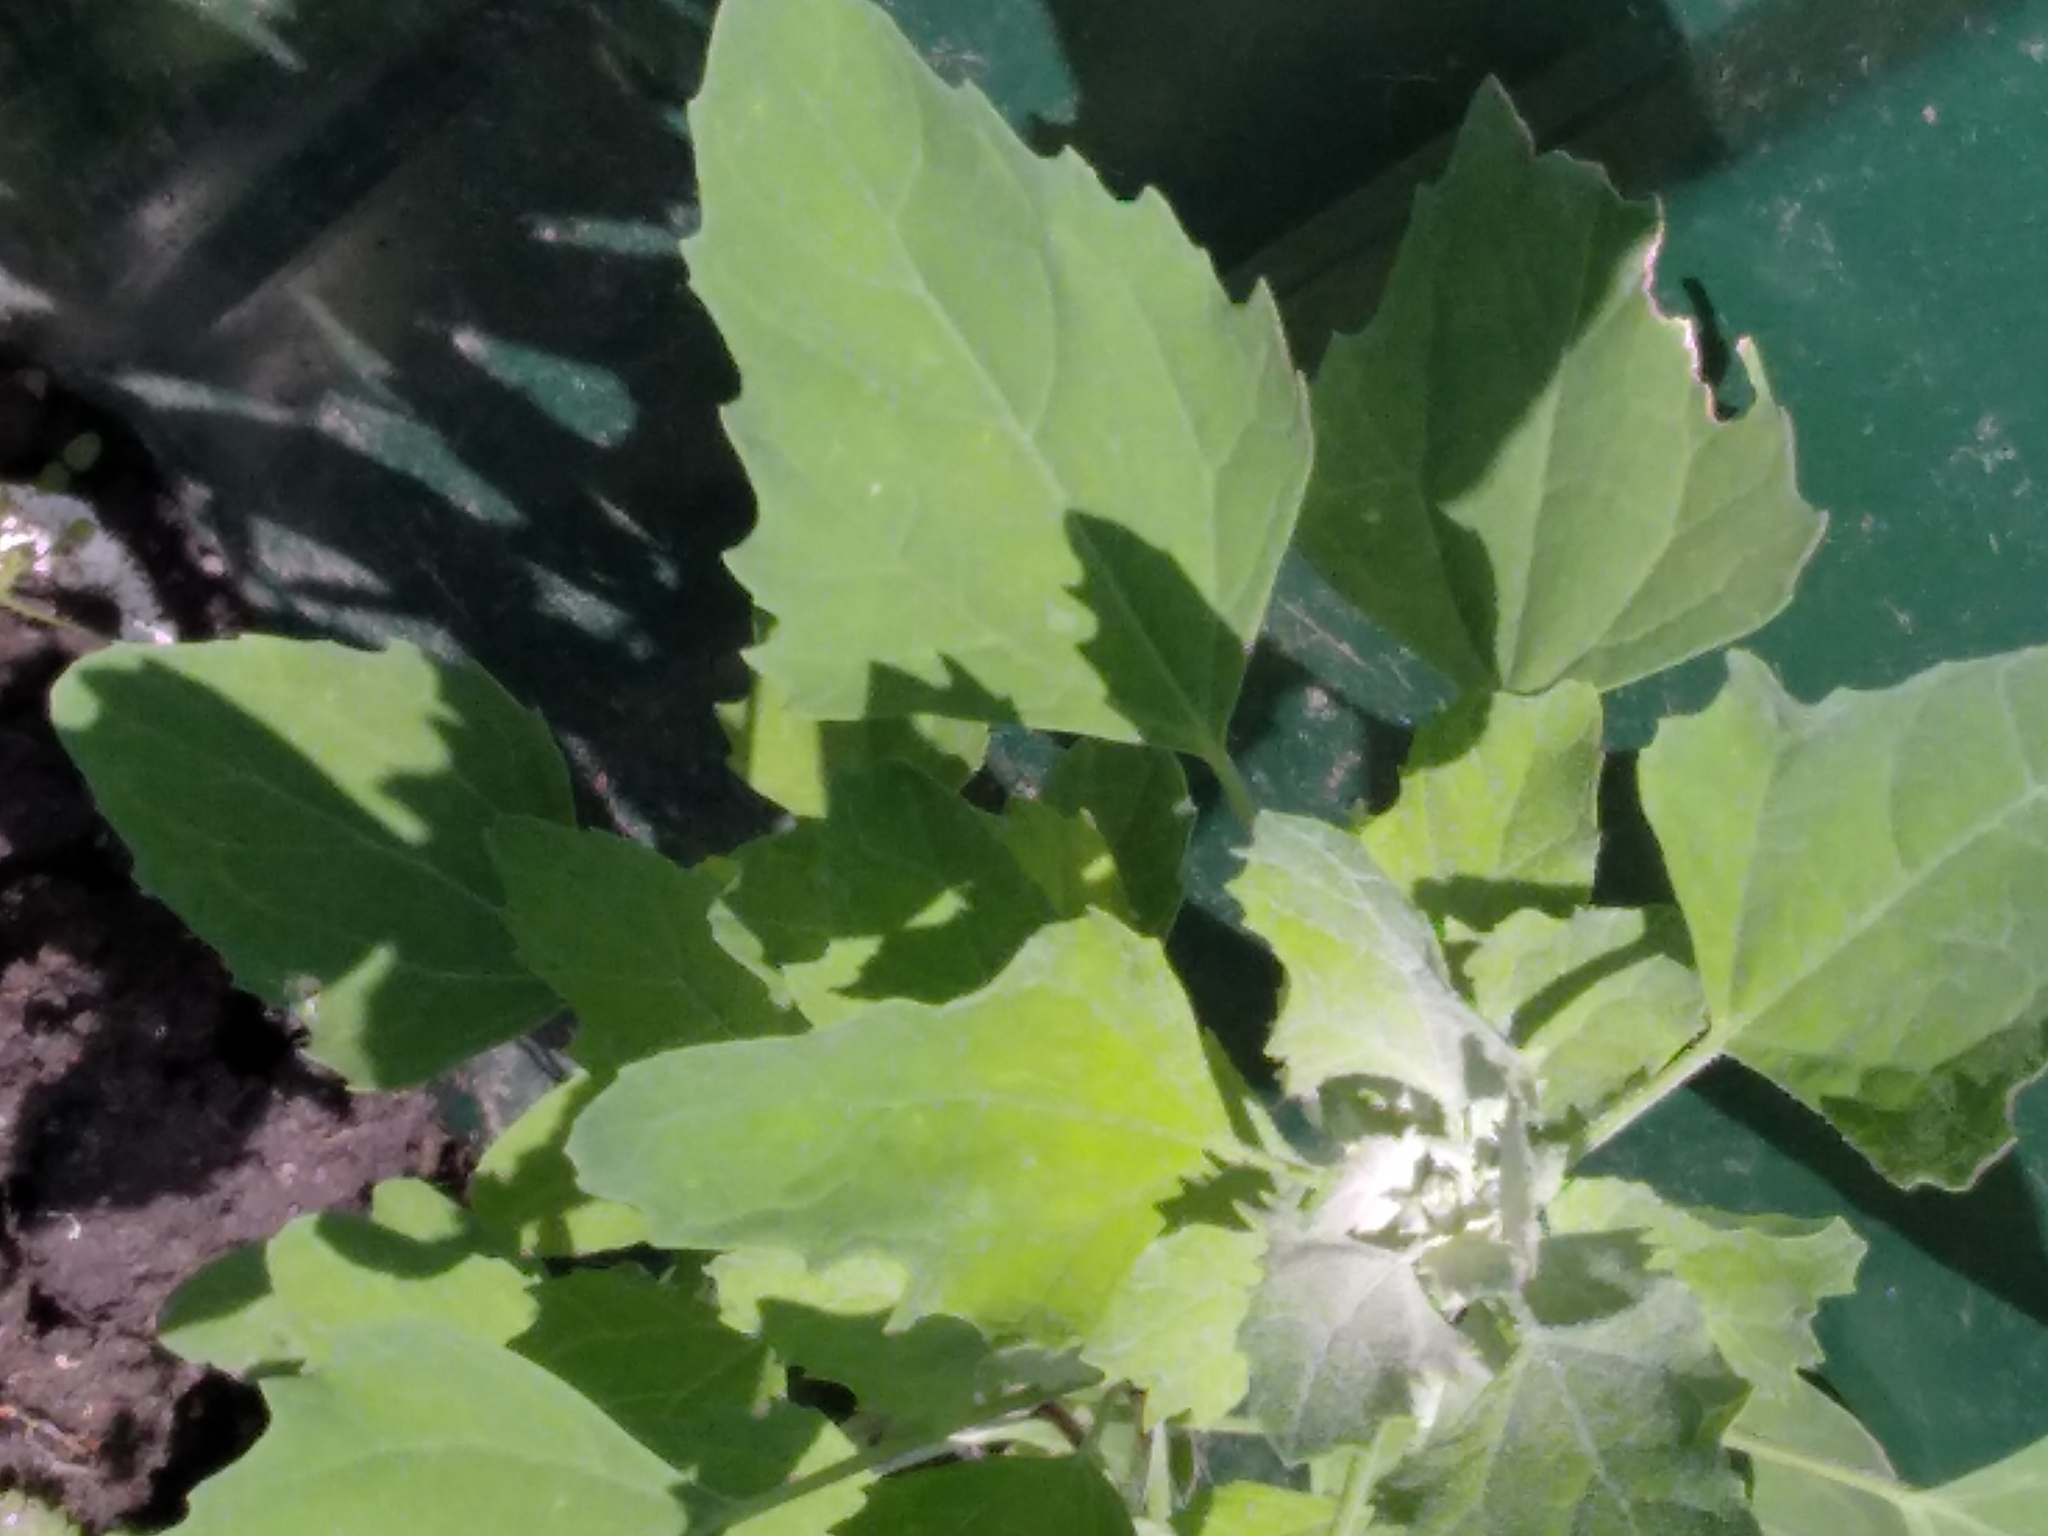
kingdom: Plantae
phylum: Tracheophyta
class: Magnoliopsida
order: Caryophyllales
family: Amaranthaceae
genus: Chenopodium
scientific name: Chenopodium album
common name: Fat-hen
